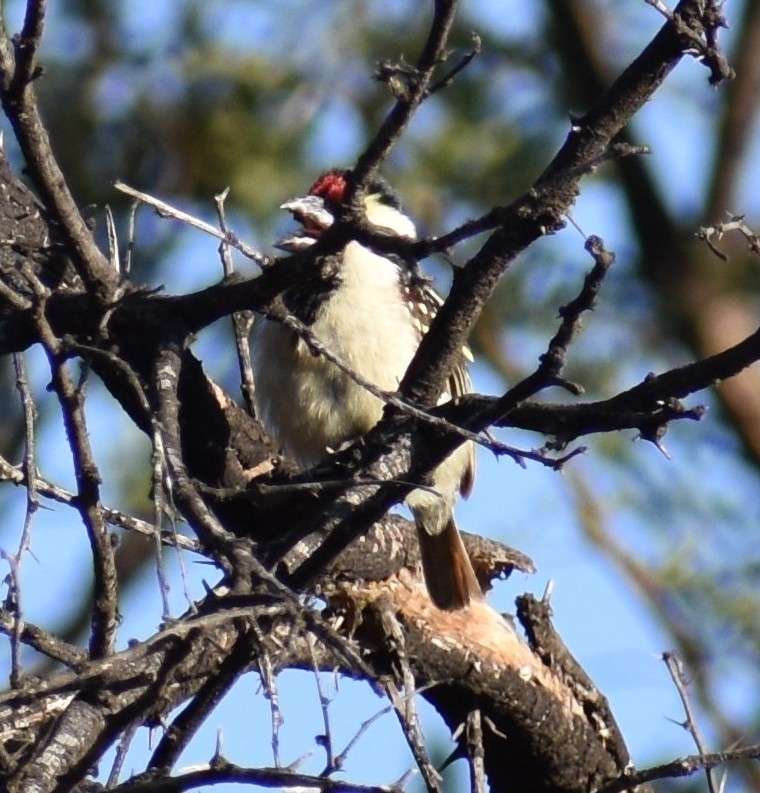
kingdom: Animalia
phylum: Chordata
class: Aves
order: Piciformes
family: Lybiidae
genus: Tricholaema
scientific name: Tricholaema leucomelas
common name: Acacia pied barbet
